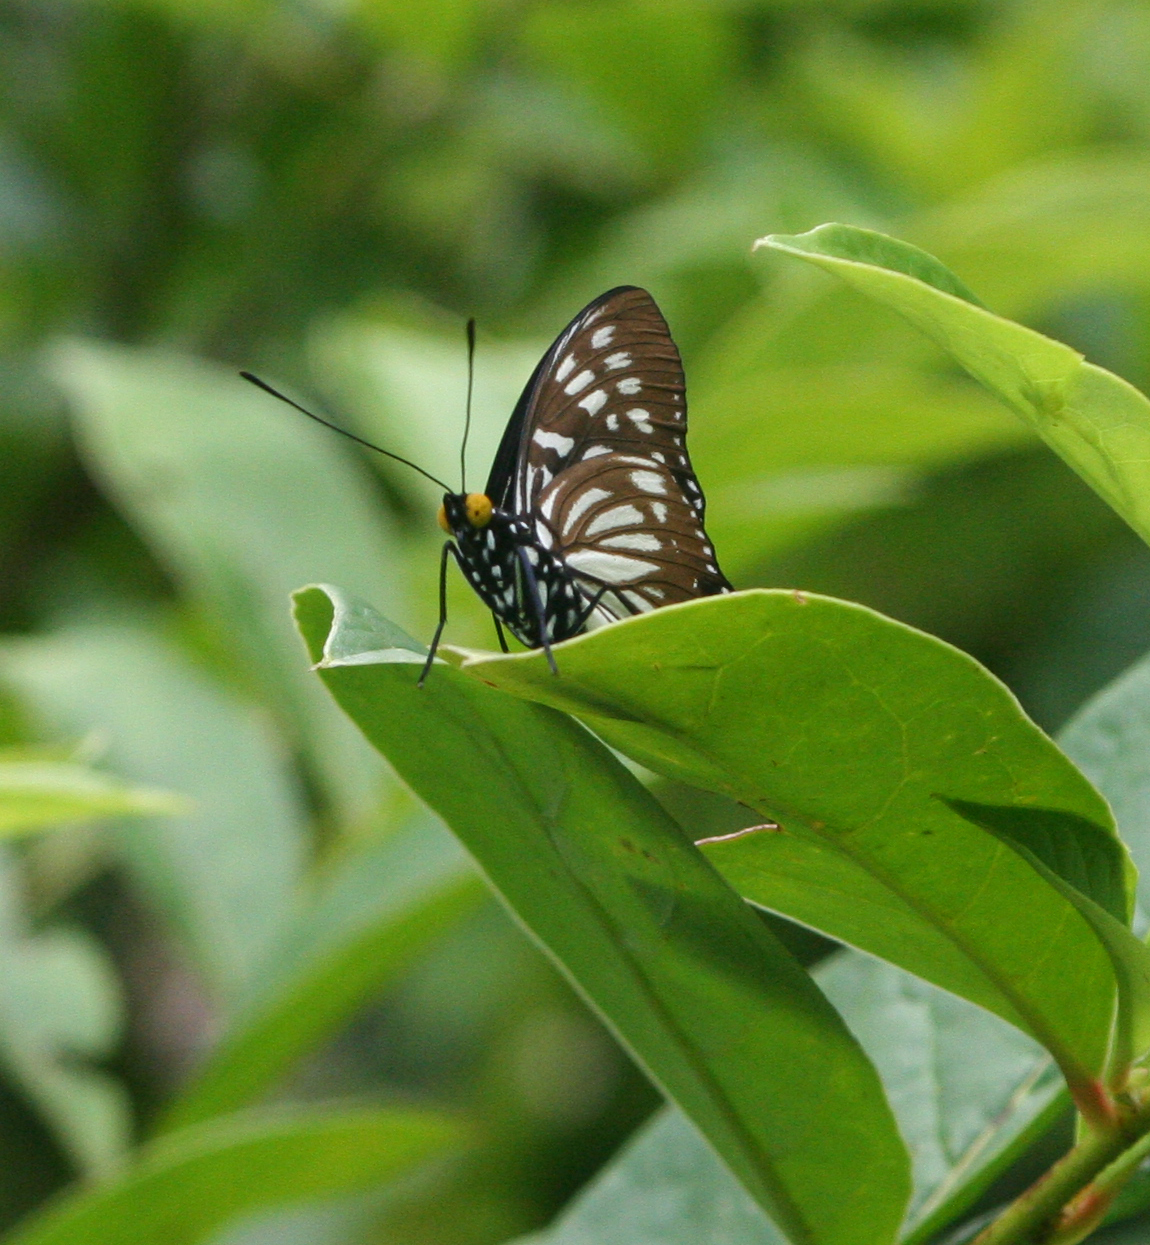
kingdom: Animalia
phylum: Arthropoda
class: Insecta
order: Lepidoptera
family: Nymphalidae
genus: Euripus
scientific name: Euripus nyctelius
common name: Courtesan
